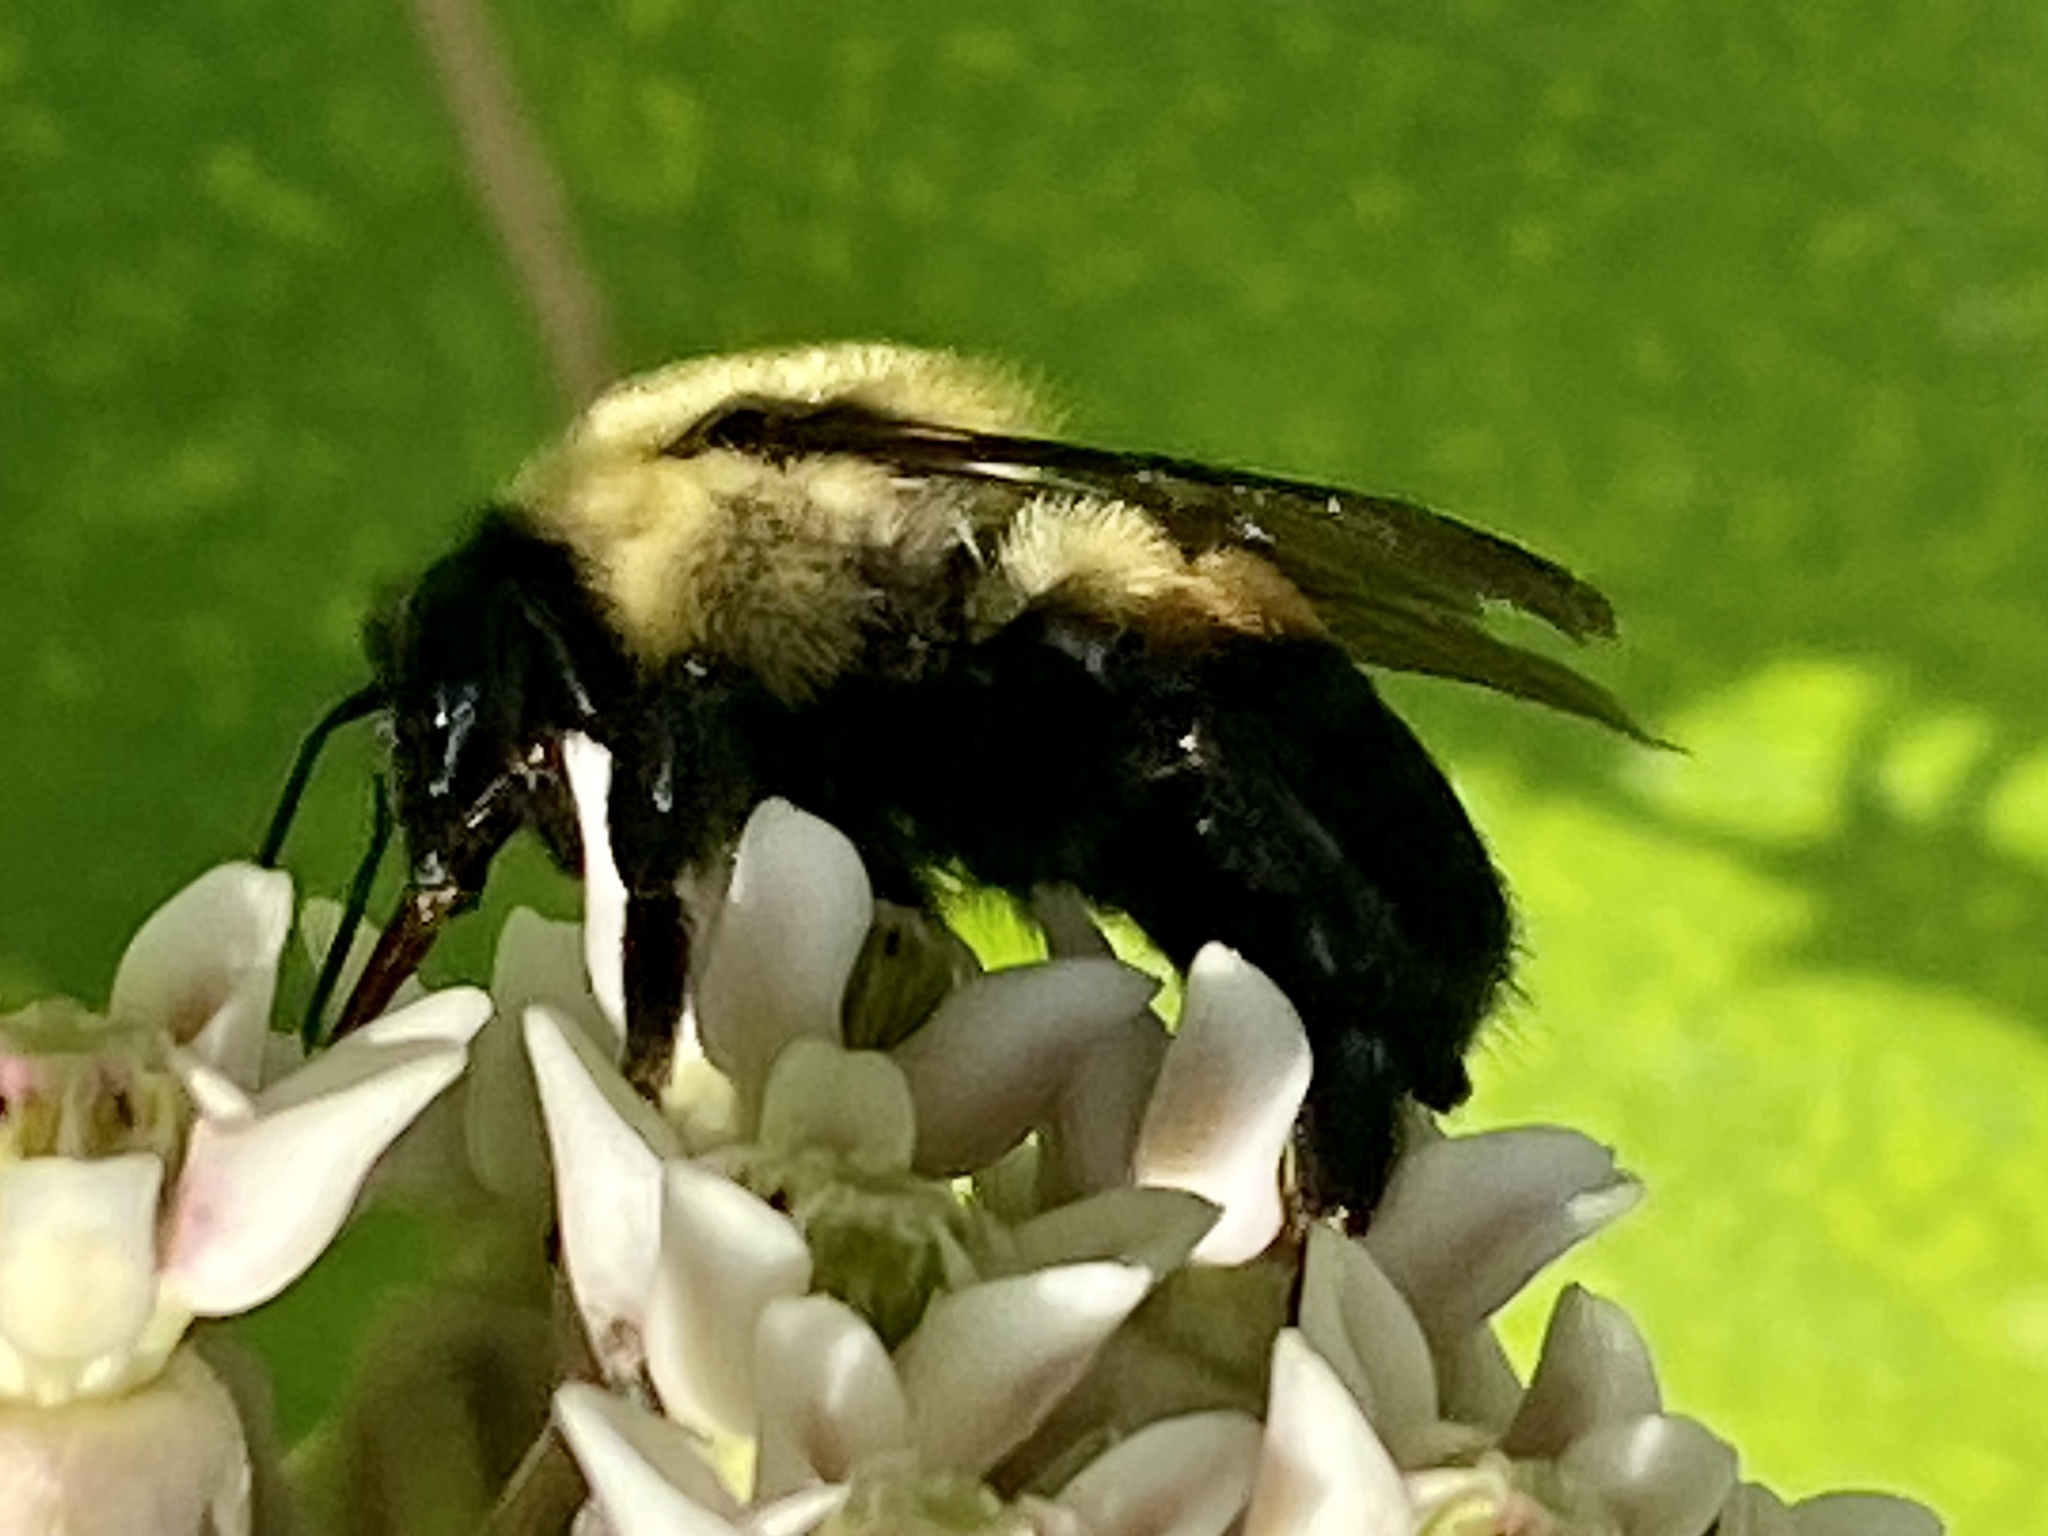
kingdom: Animalia
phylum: Arthropoda
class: Insecta
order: Hymenoptera
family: Apidae
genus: Bombus
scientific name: Bombus griseocollis
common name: Brown-belted bumble bee
